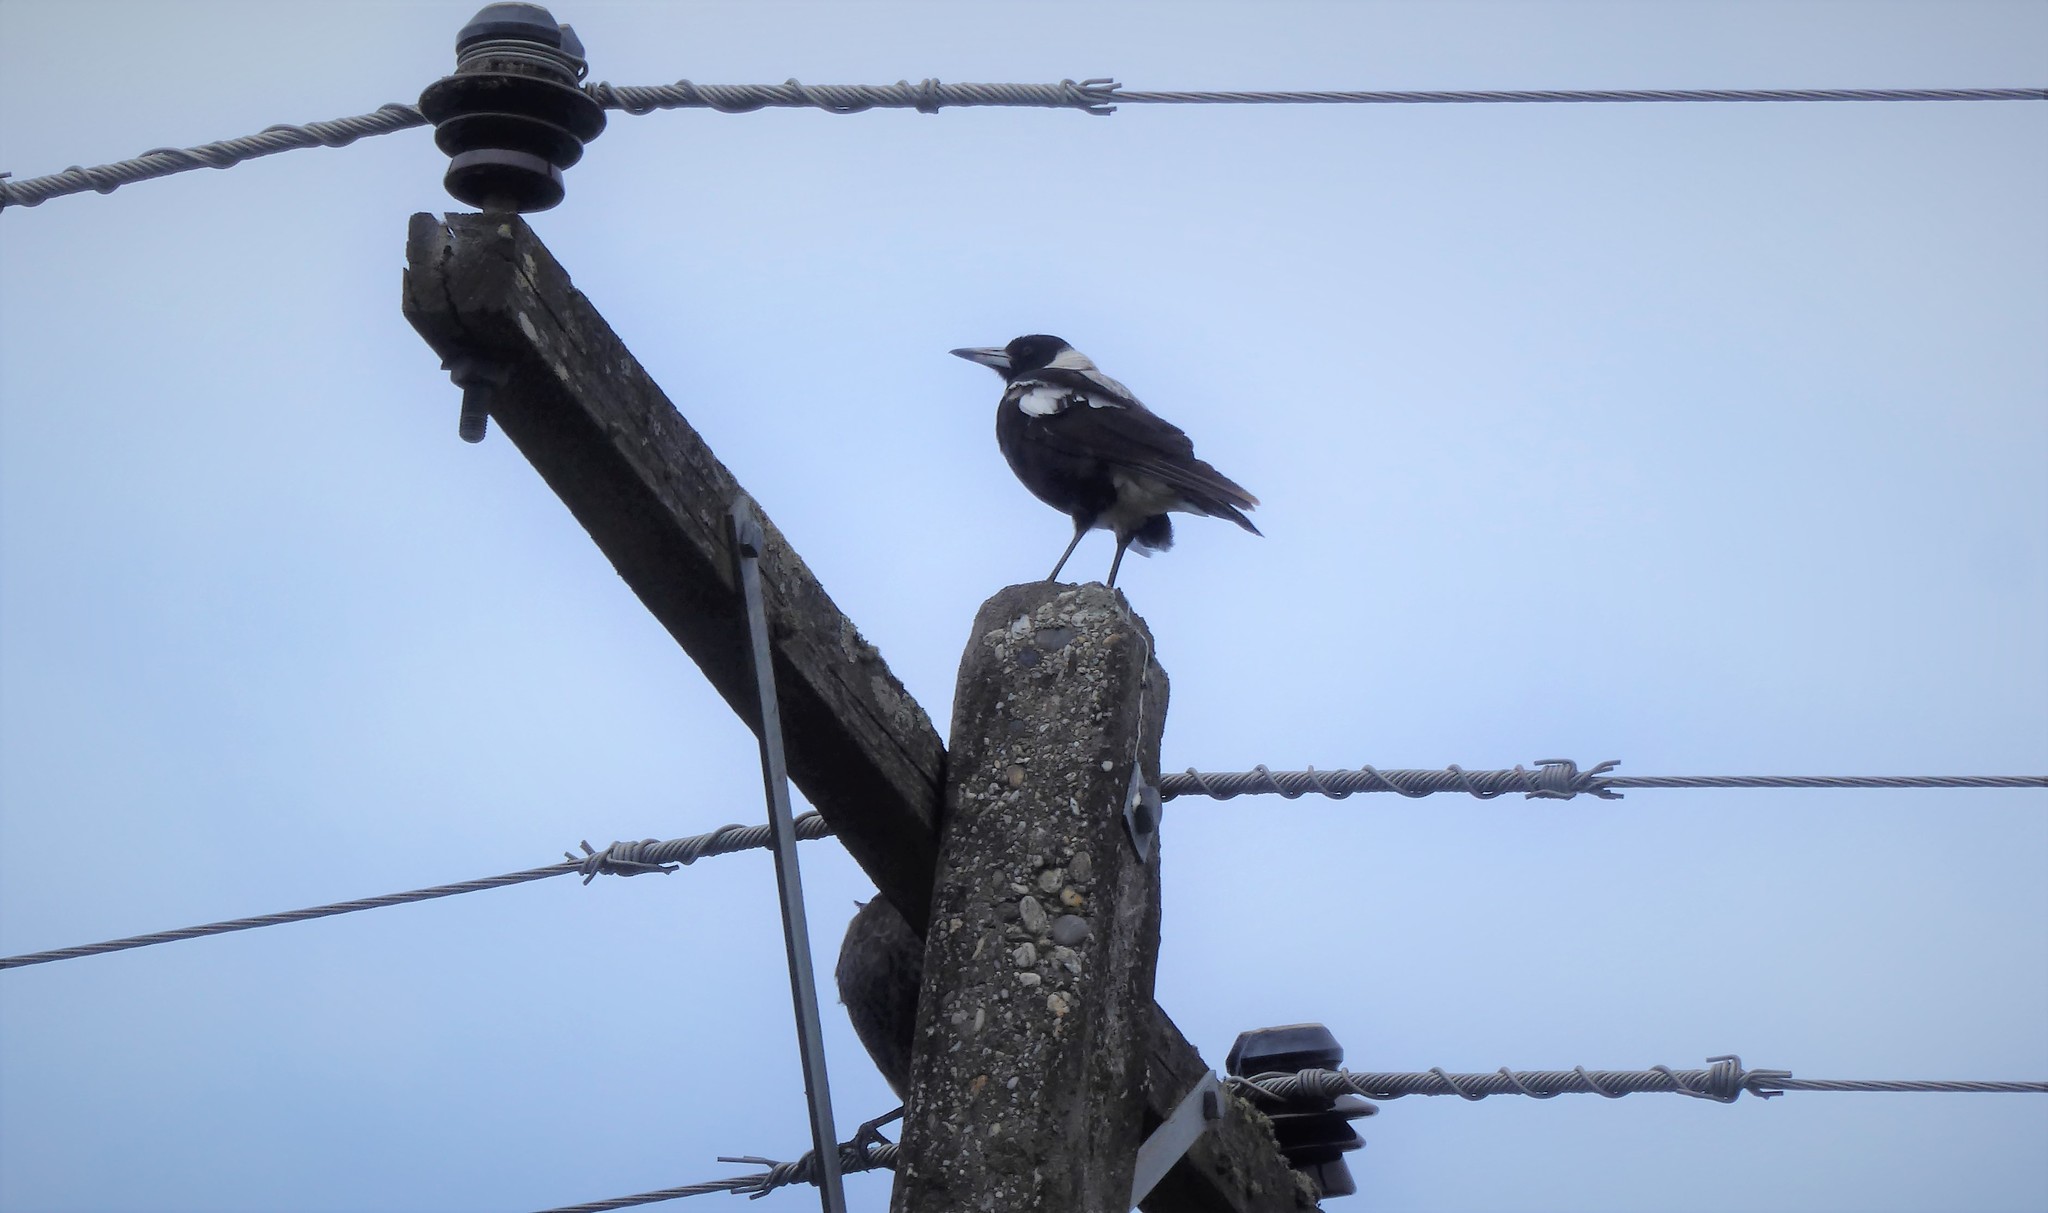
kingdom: Animalia
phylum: Chordata
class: Aves
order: Passeriformes
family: Cracticidae
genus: Gymnorhina
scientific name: Gymnorhina tibicen
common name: Australian magpie
